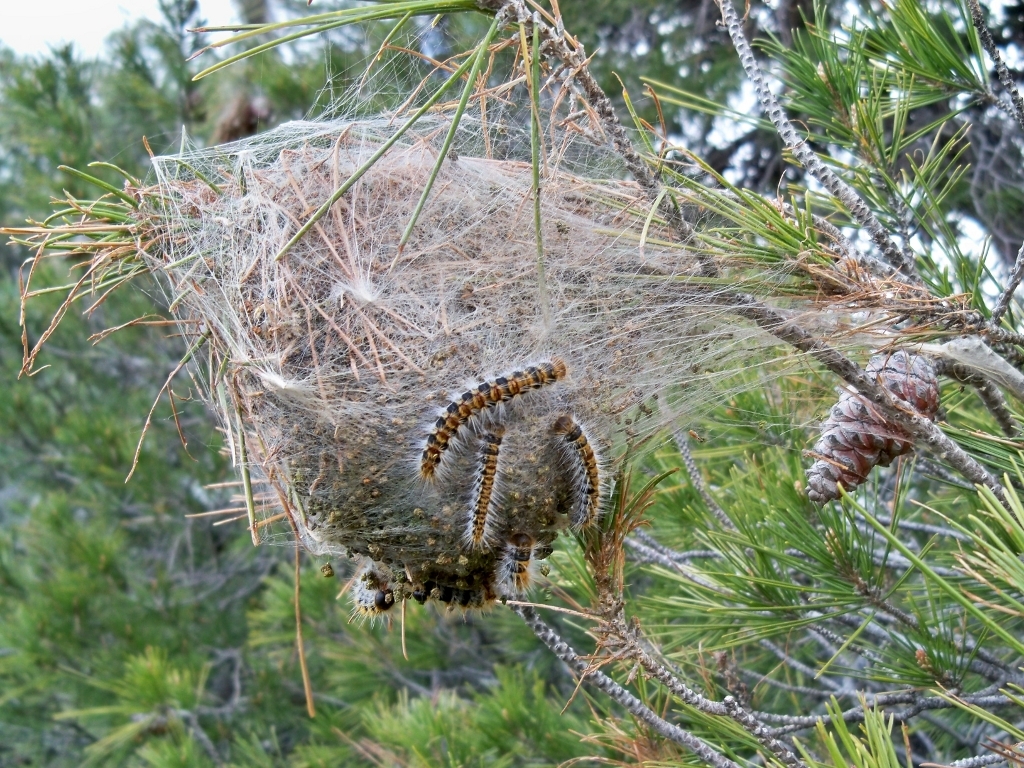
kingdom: Animalia
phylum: Arthropoda
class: Insecta
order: Lepidoptera
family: Notodontidae
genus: Thaumetopoea
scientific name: Thaumetopoea pityocampa
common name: Pine processionary
